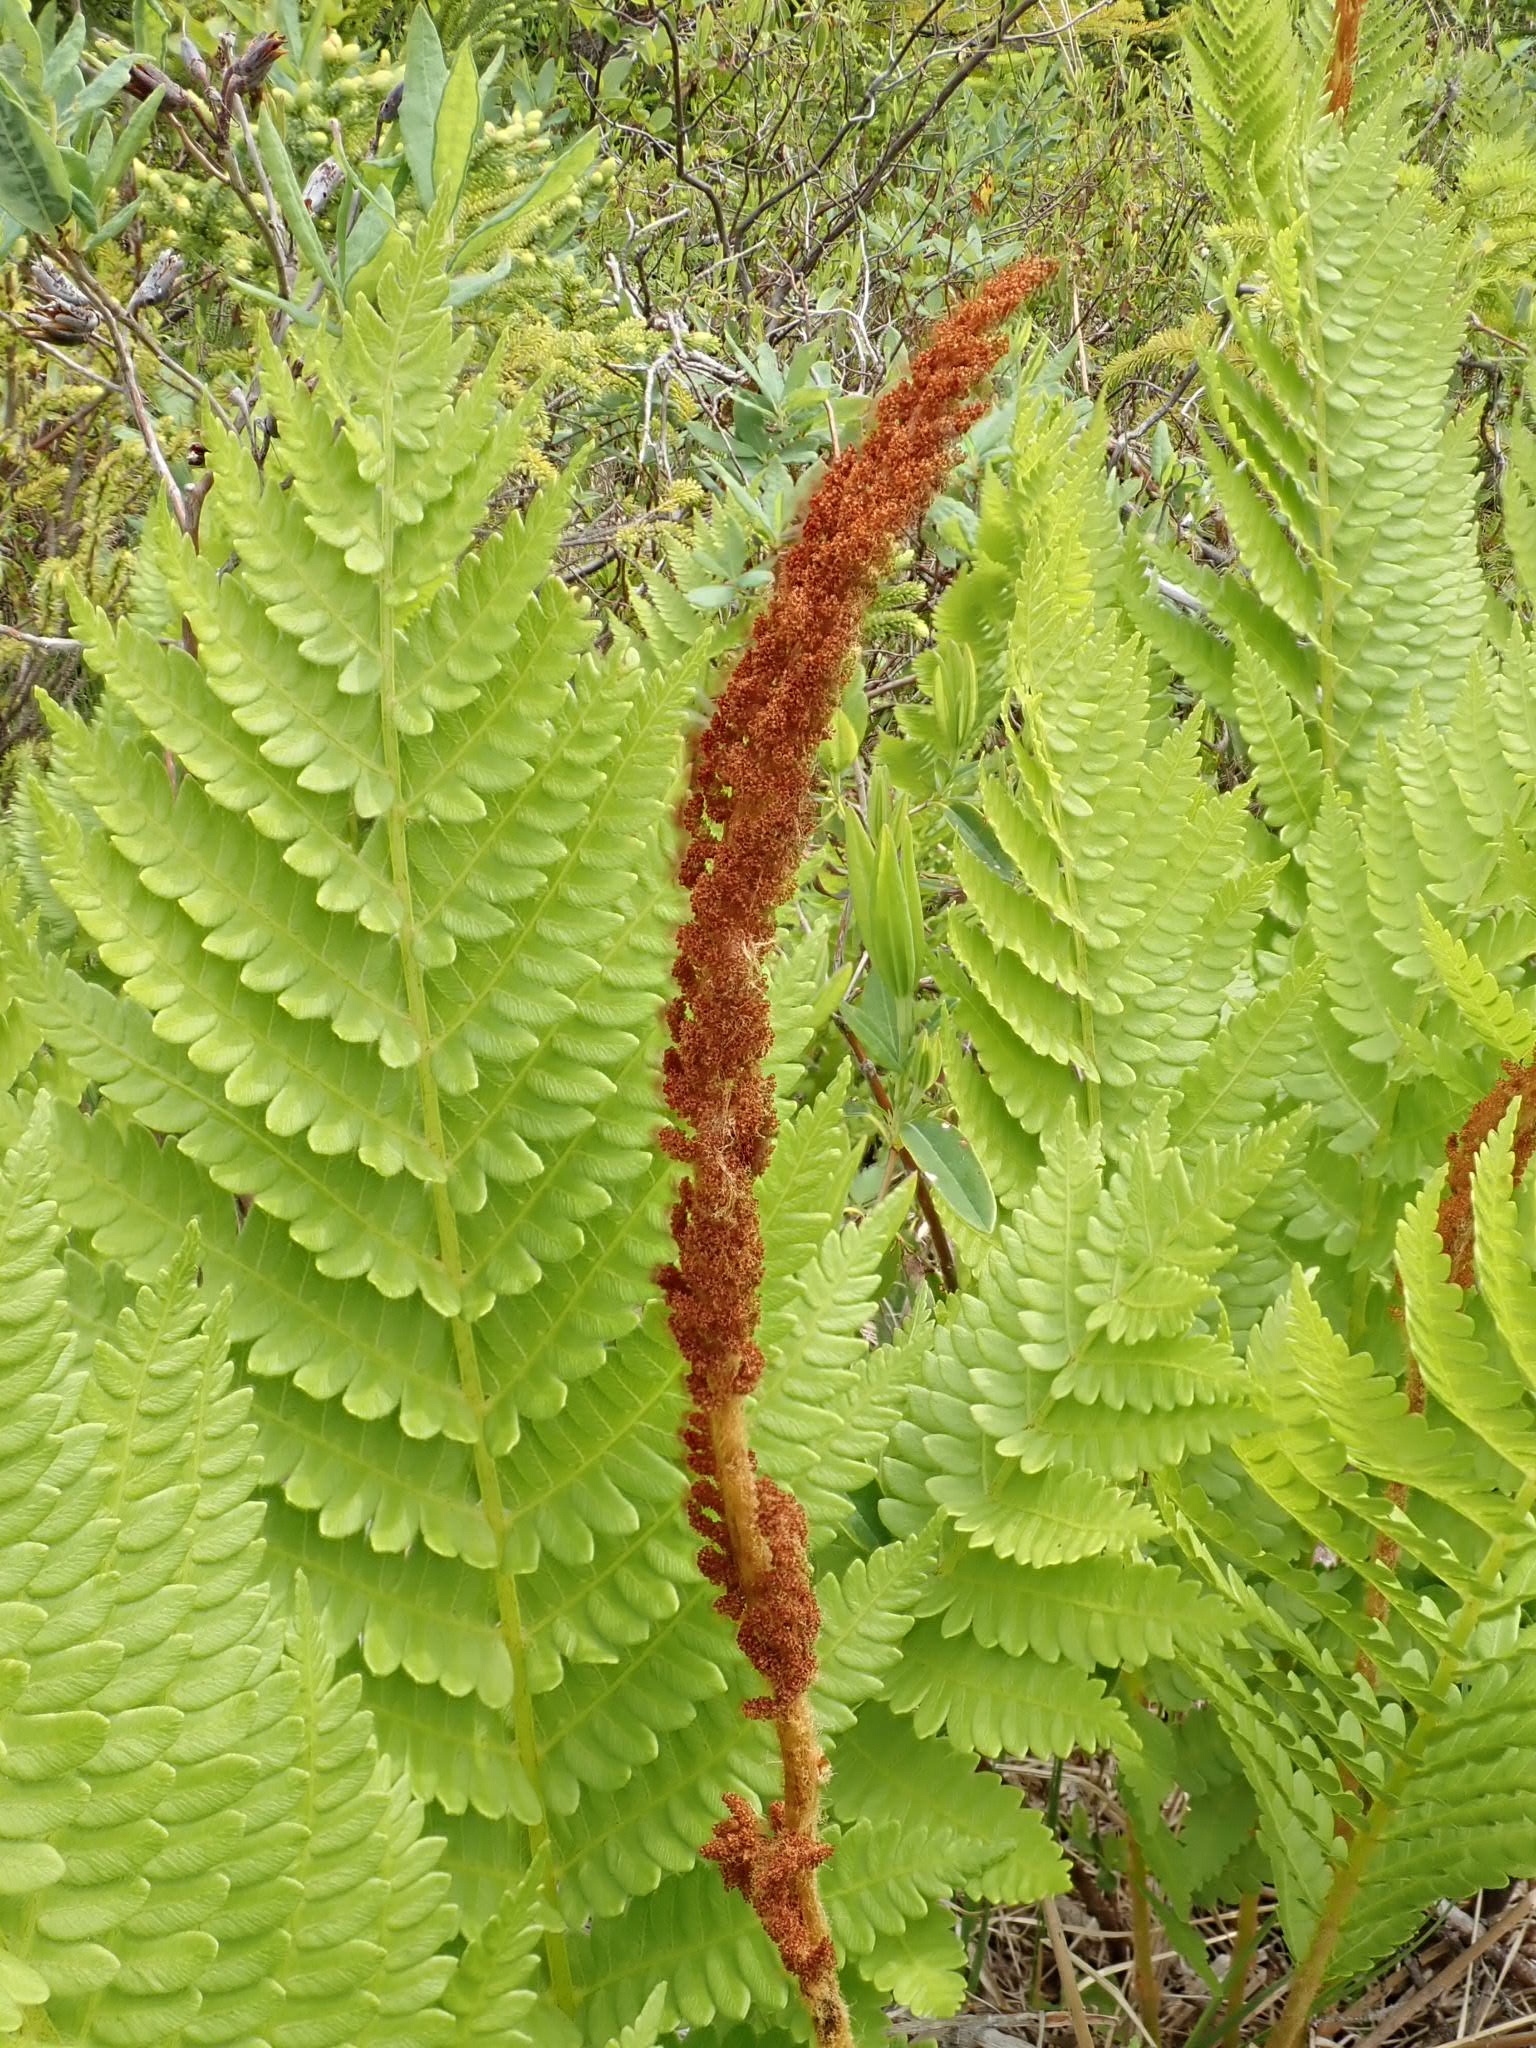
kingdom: Plantae
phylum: Tracheophyta
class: Polypodiopsida
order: Osmundales
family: Osmundaceae
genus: Osmundastrum
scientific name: Osmundastrum cinnamomeum
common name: Cinnamon fern
